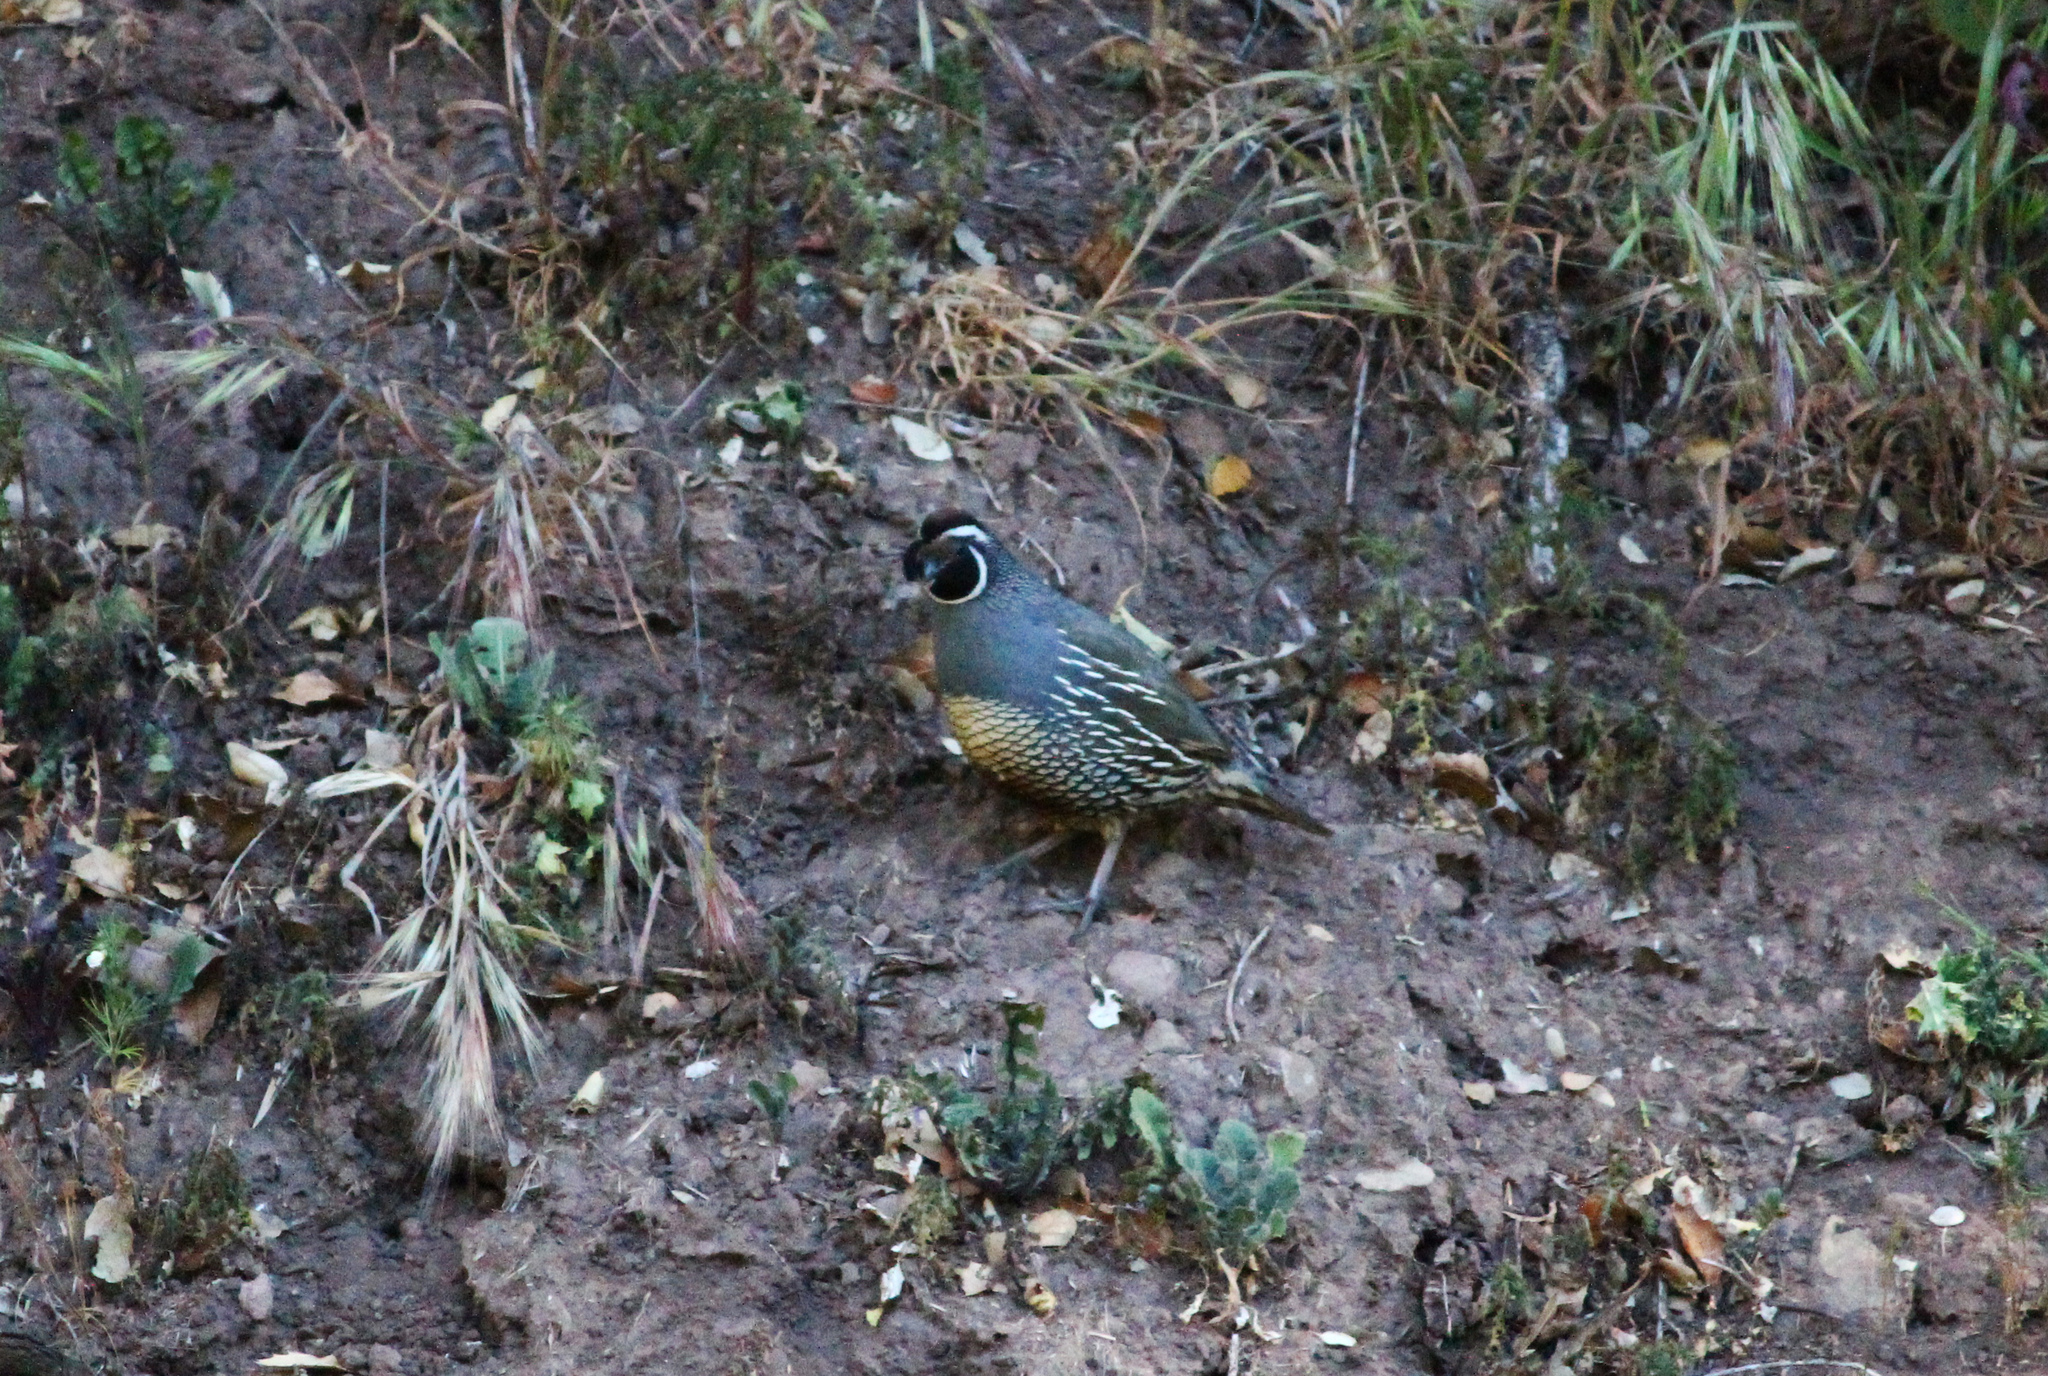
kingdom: Animalia
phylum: Chordata
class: Aves
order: Galliformes
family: Odontophoridae
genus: Callipepla
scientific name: Callipepla californica
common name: California quail
